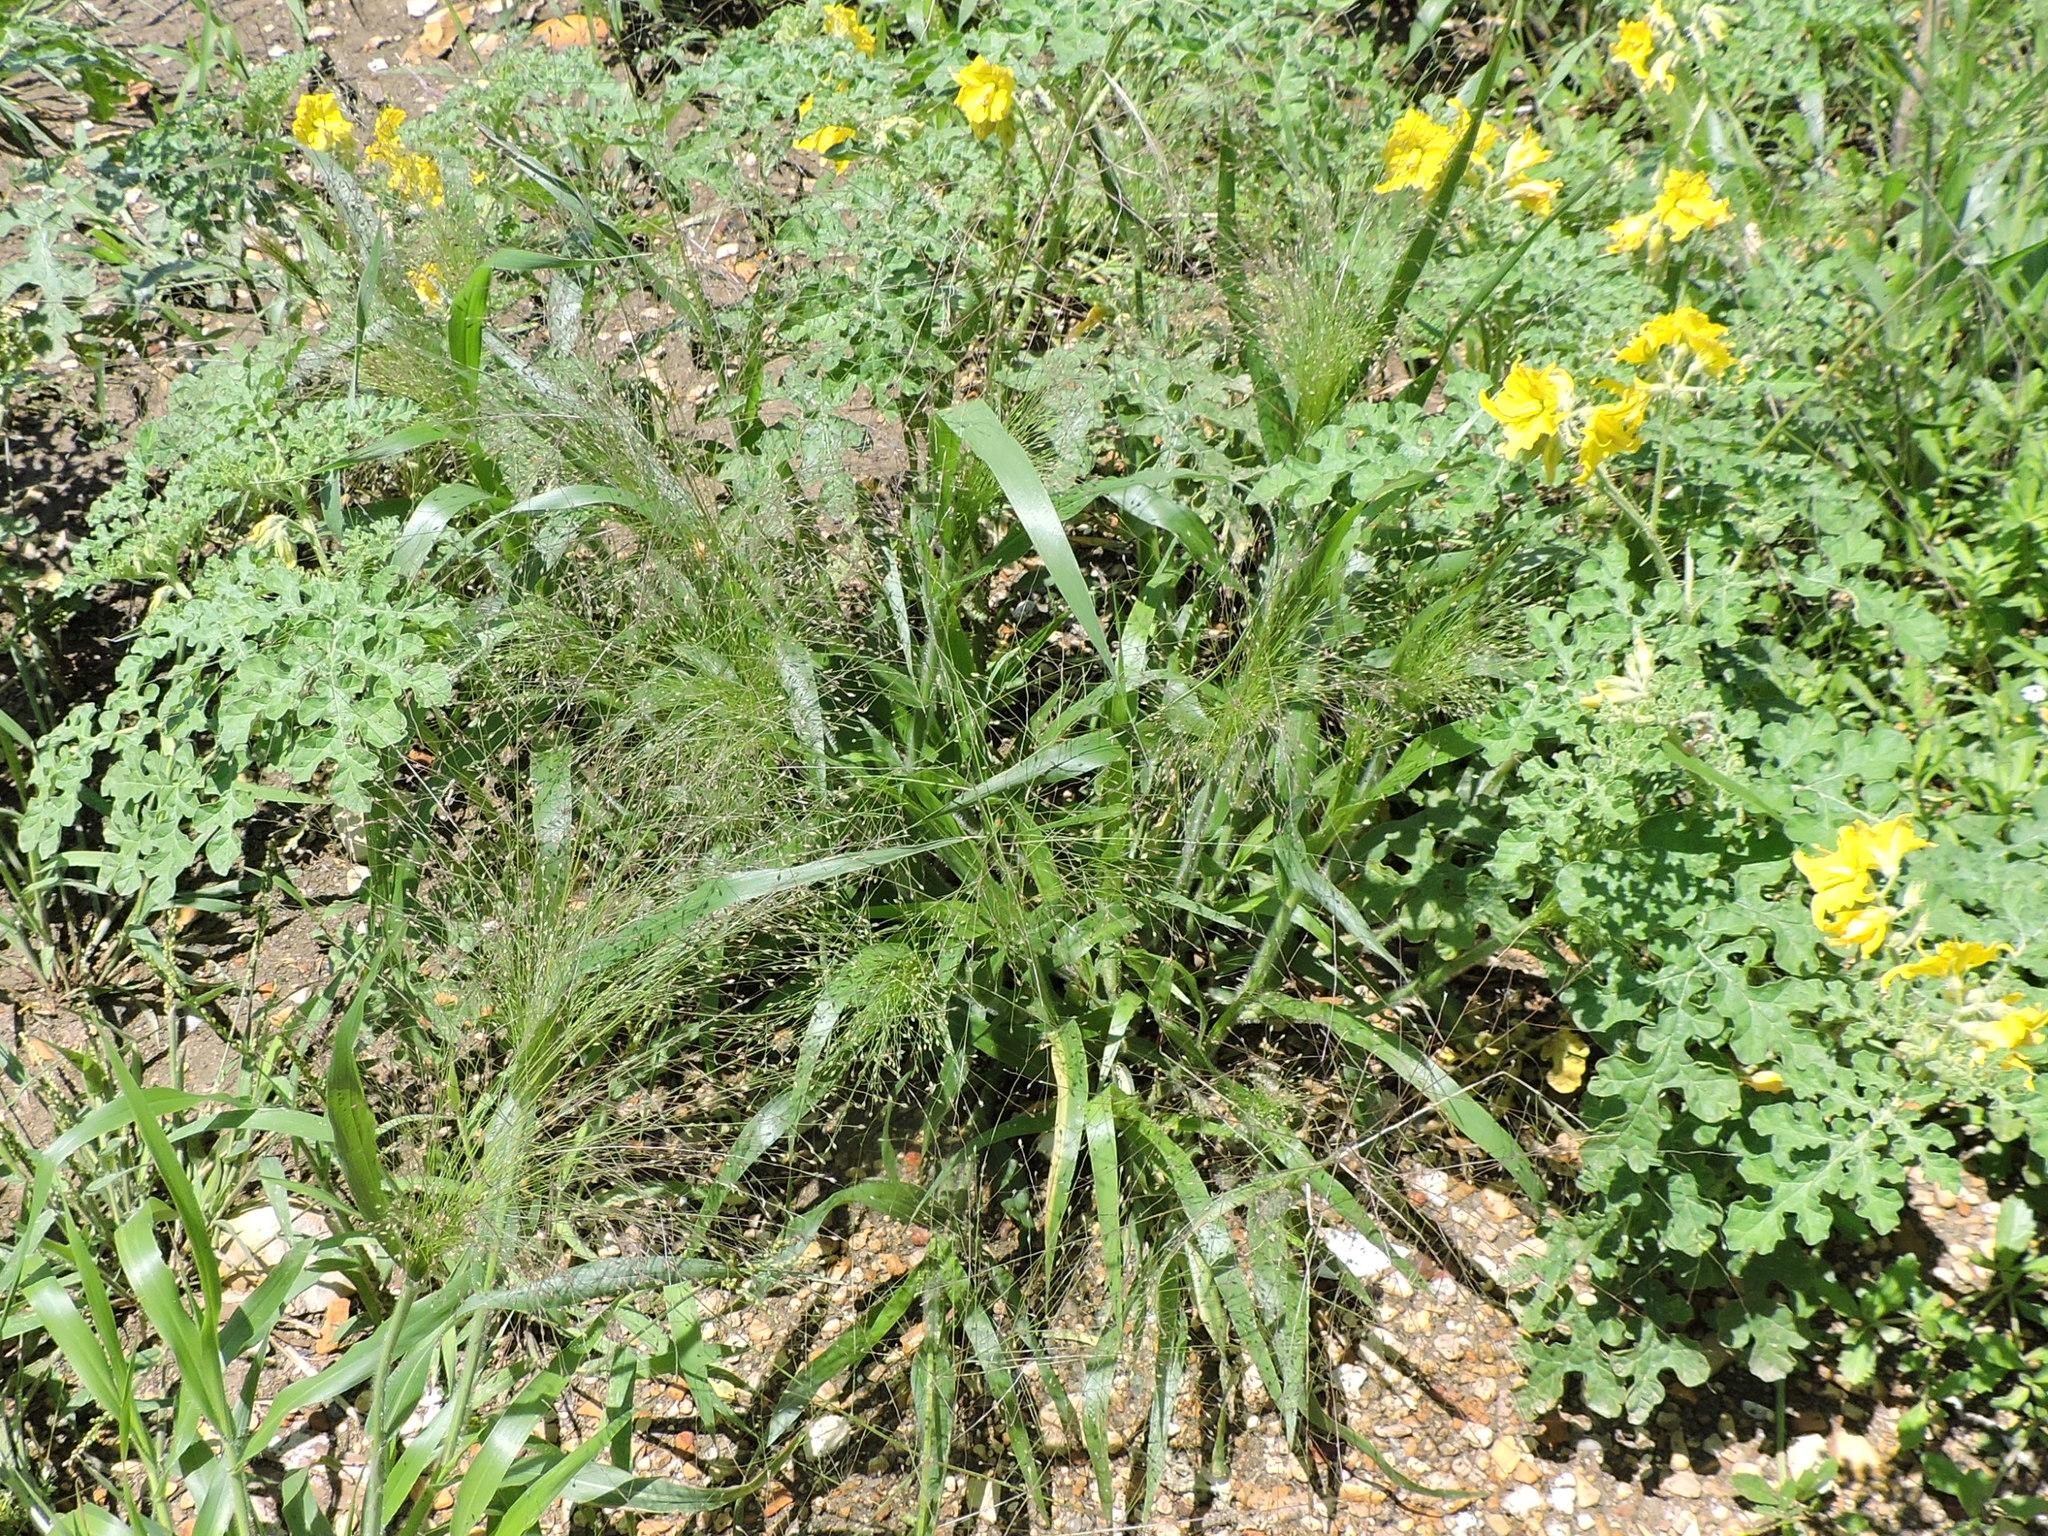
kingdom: Plantae
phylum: Tracheophyta
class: Liliopsida
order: Poales
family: Poaceae
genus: Panicum
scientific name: Panicum capillare
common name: Witch-grass
